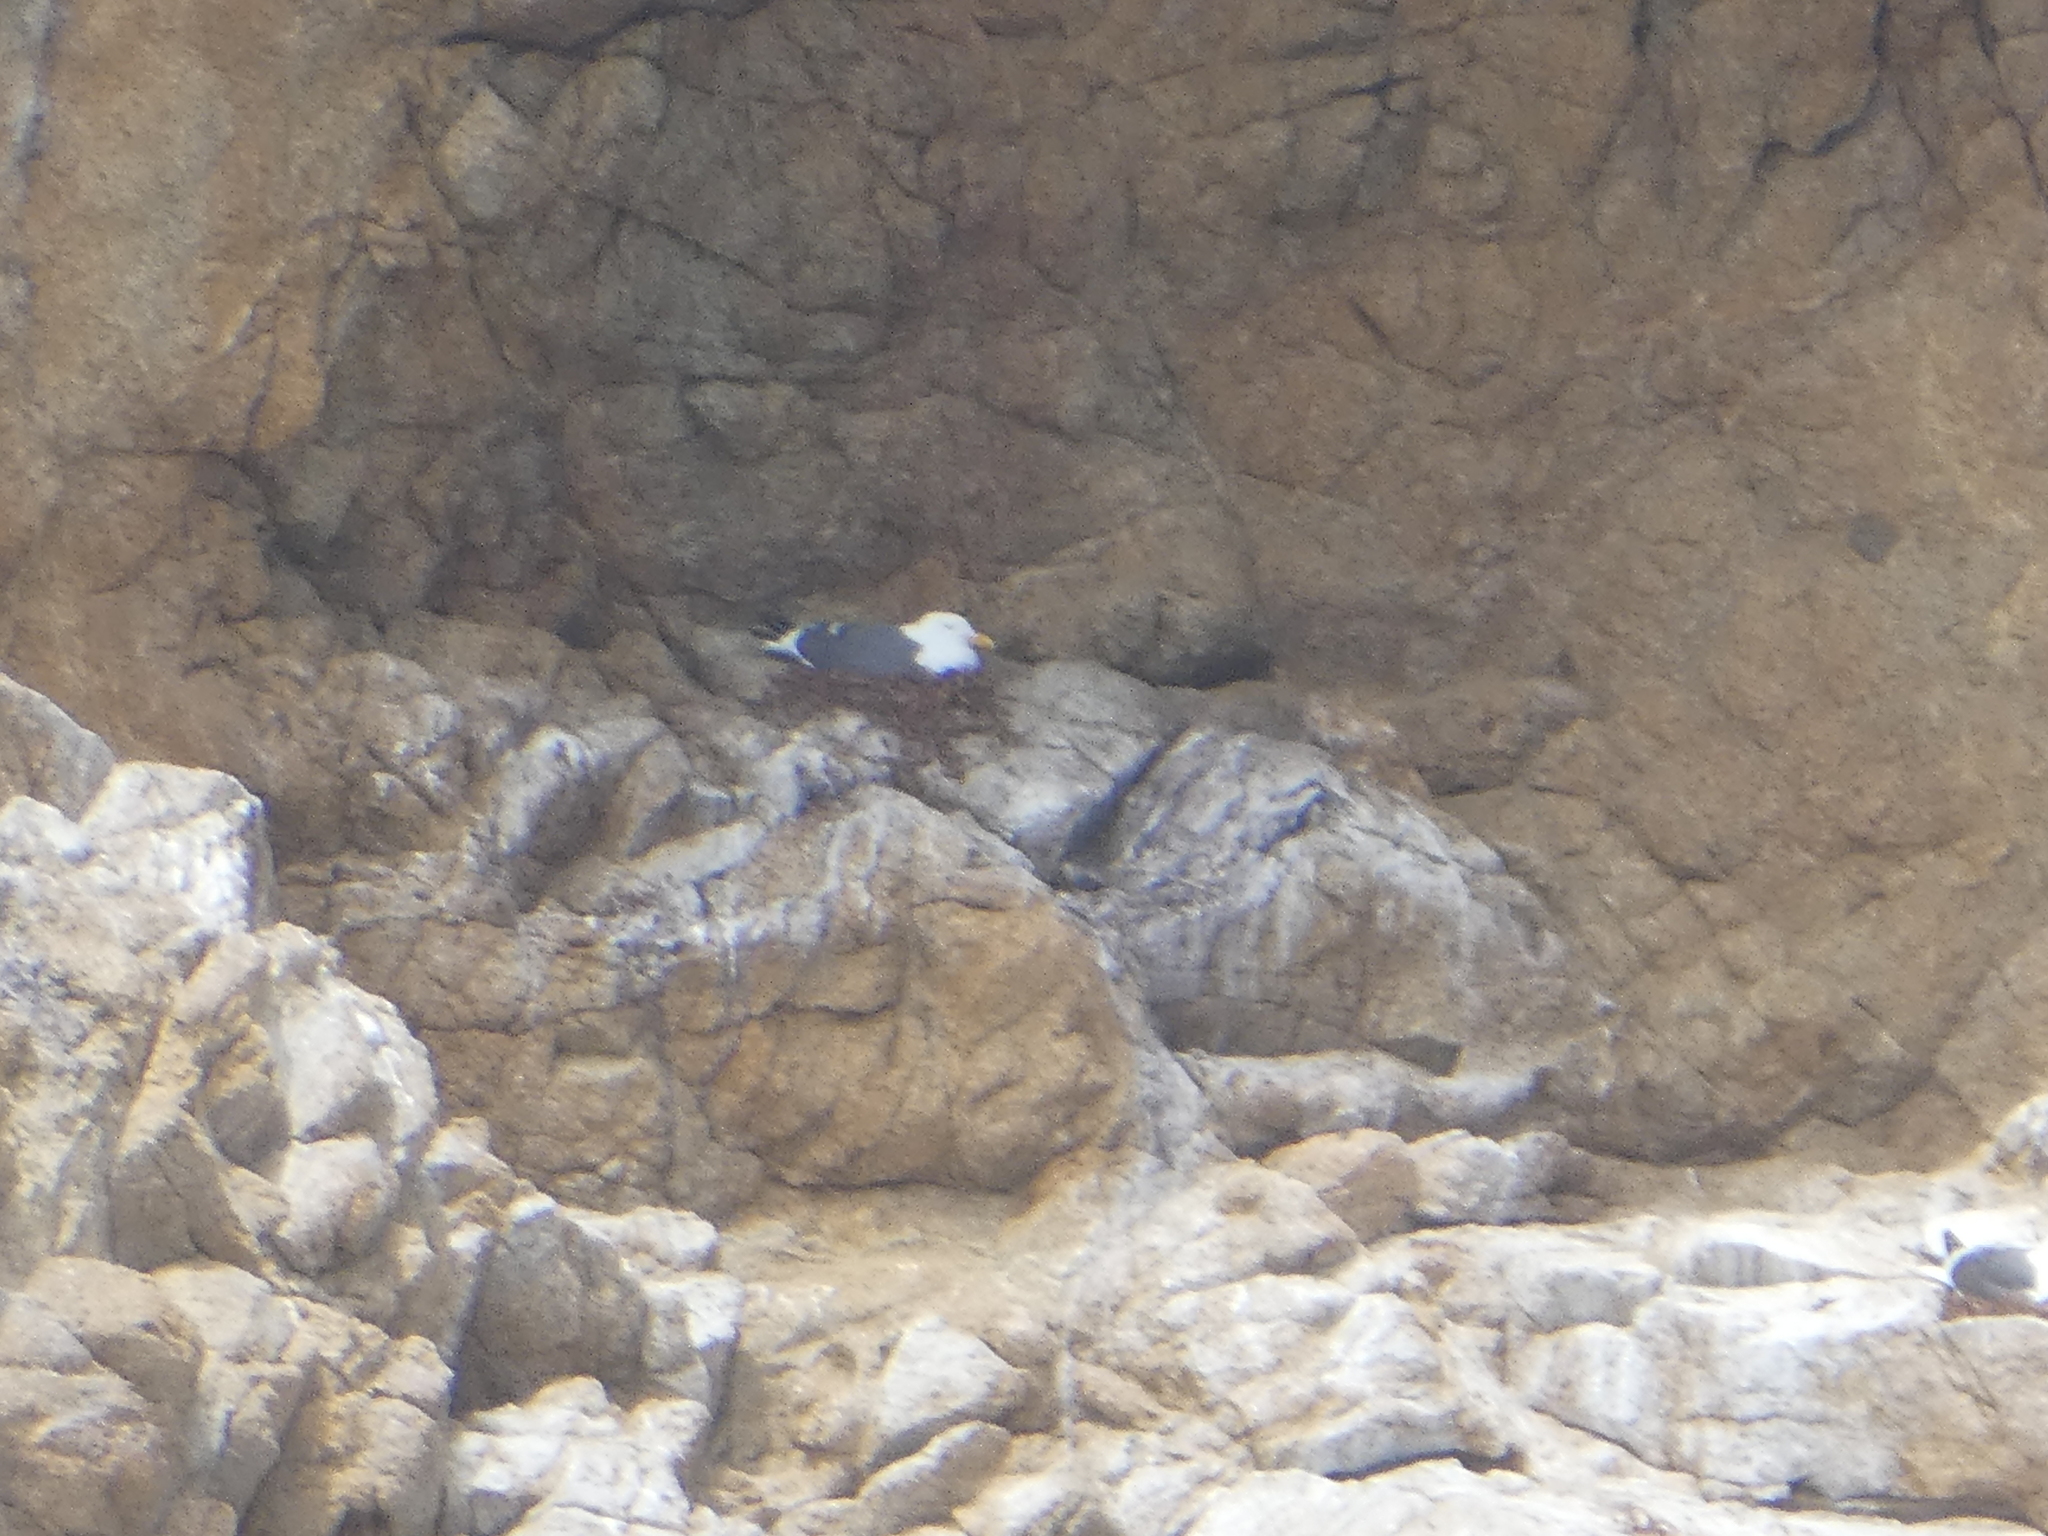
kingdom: Animalia
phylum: Chordata
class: Aves
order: Charadriiformes
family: Laridae
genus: Larus
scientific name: Larus occidentalis
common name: Western gull
